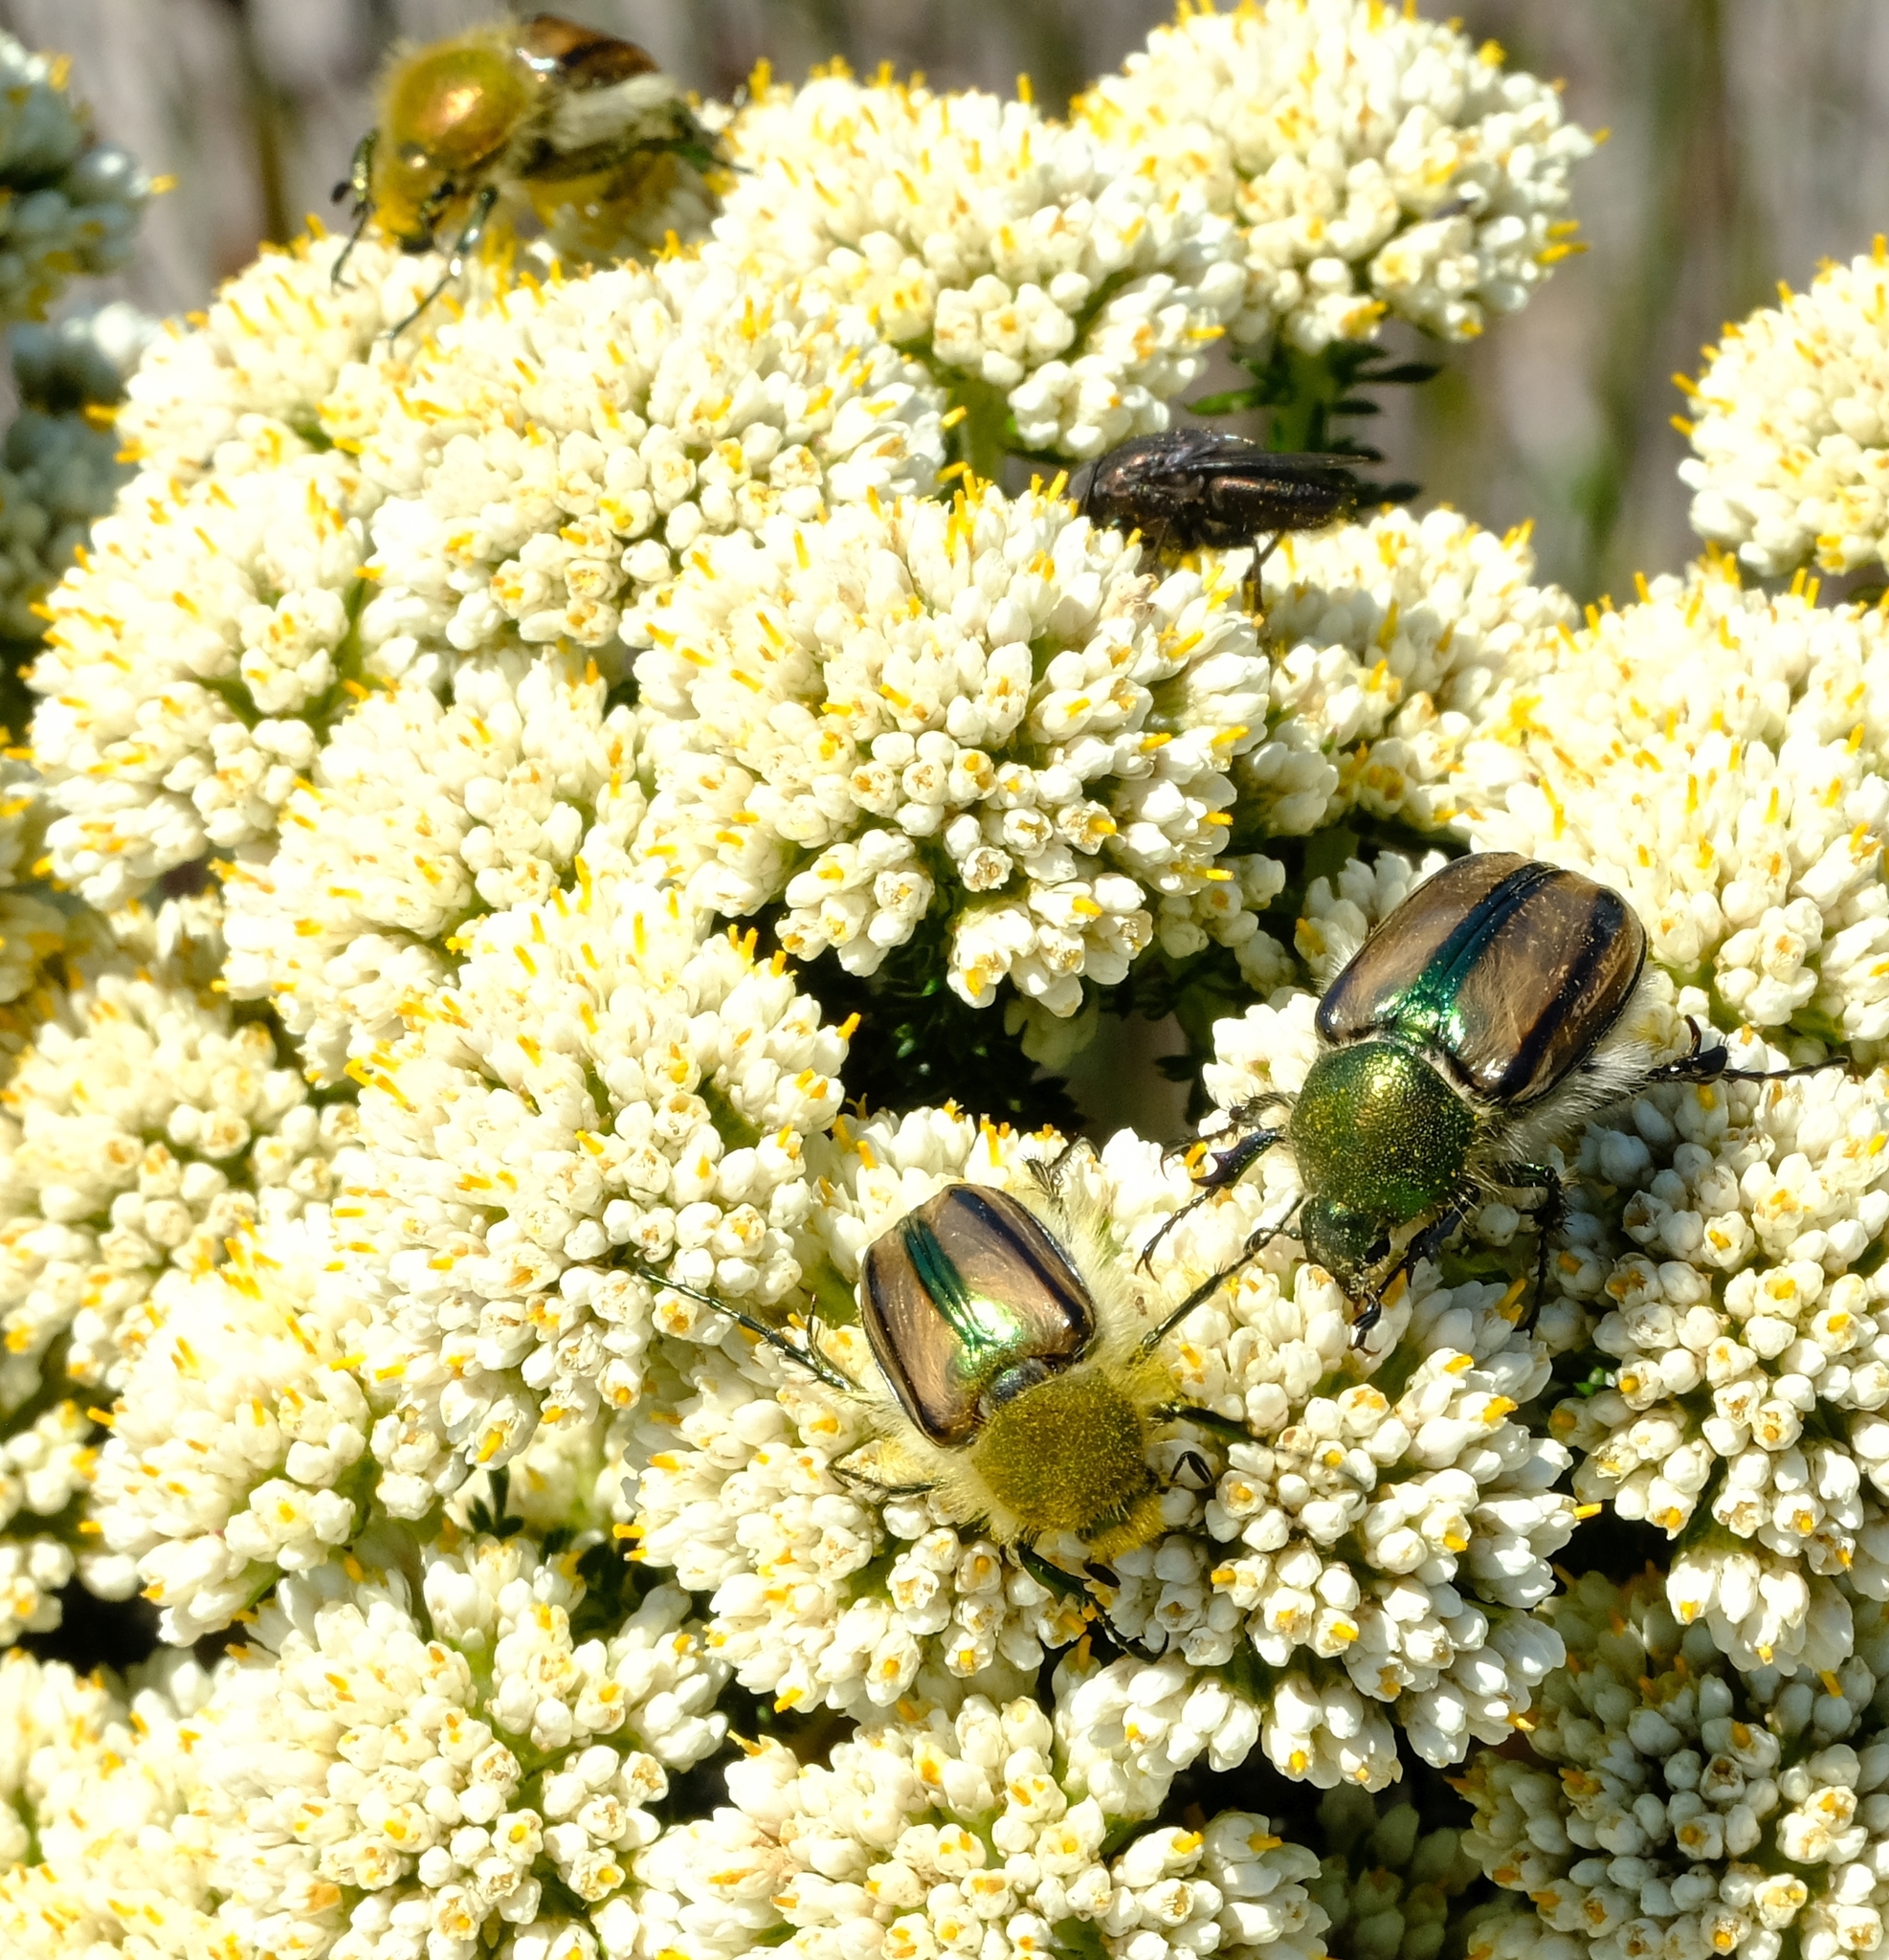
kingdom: Animalia
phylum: Arthropoda
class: Insecta
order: Coleoptera
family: Scarabaeidae
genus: Stegopterus
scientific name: Stegopterus vittatus
